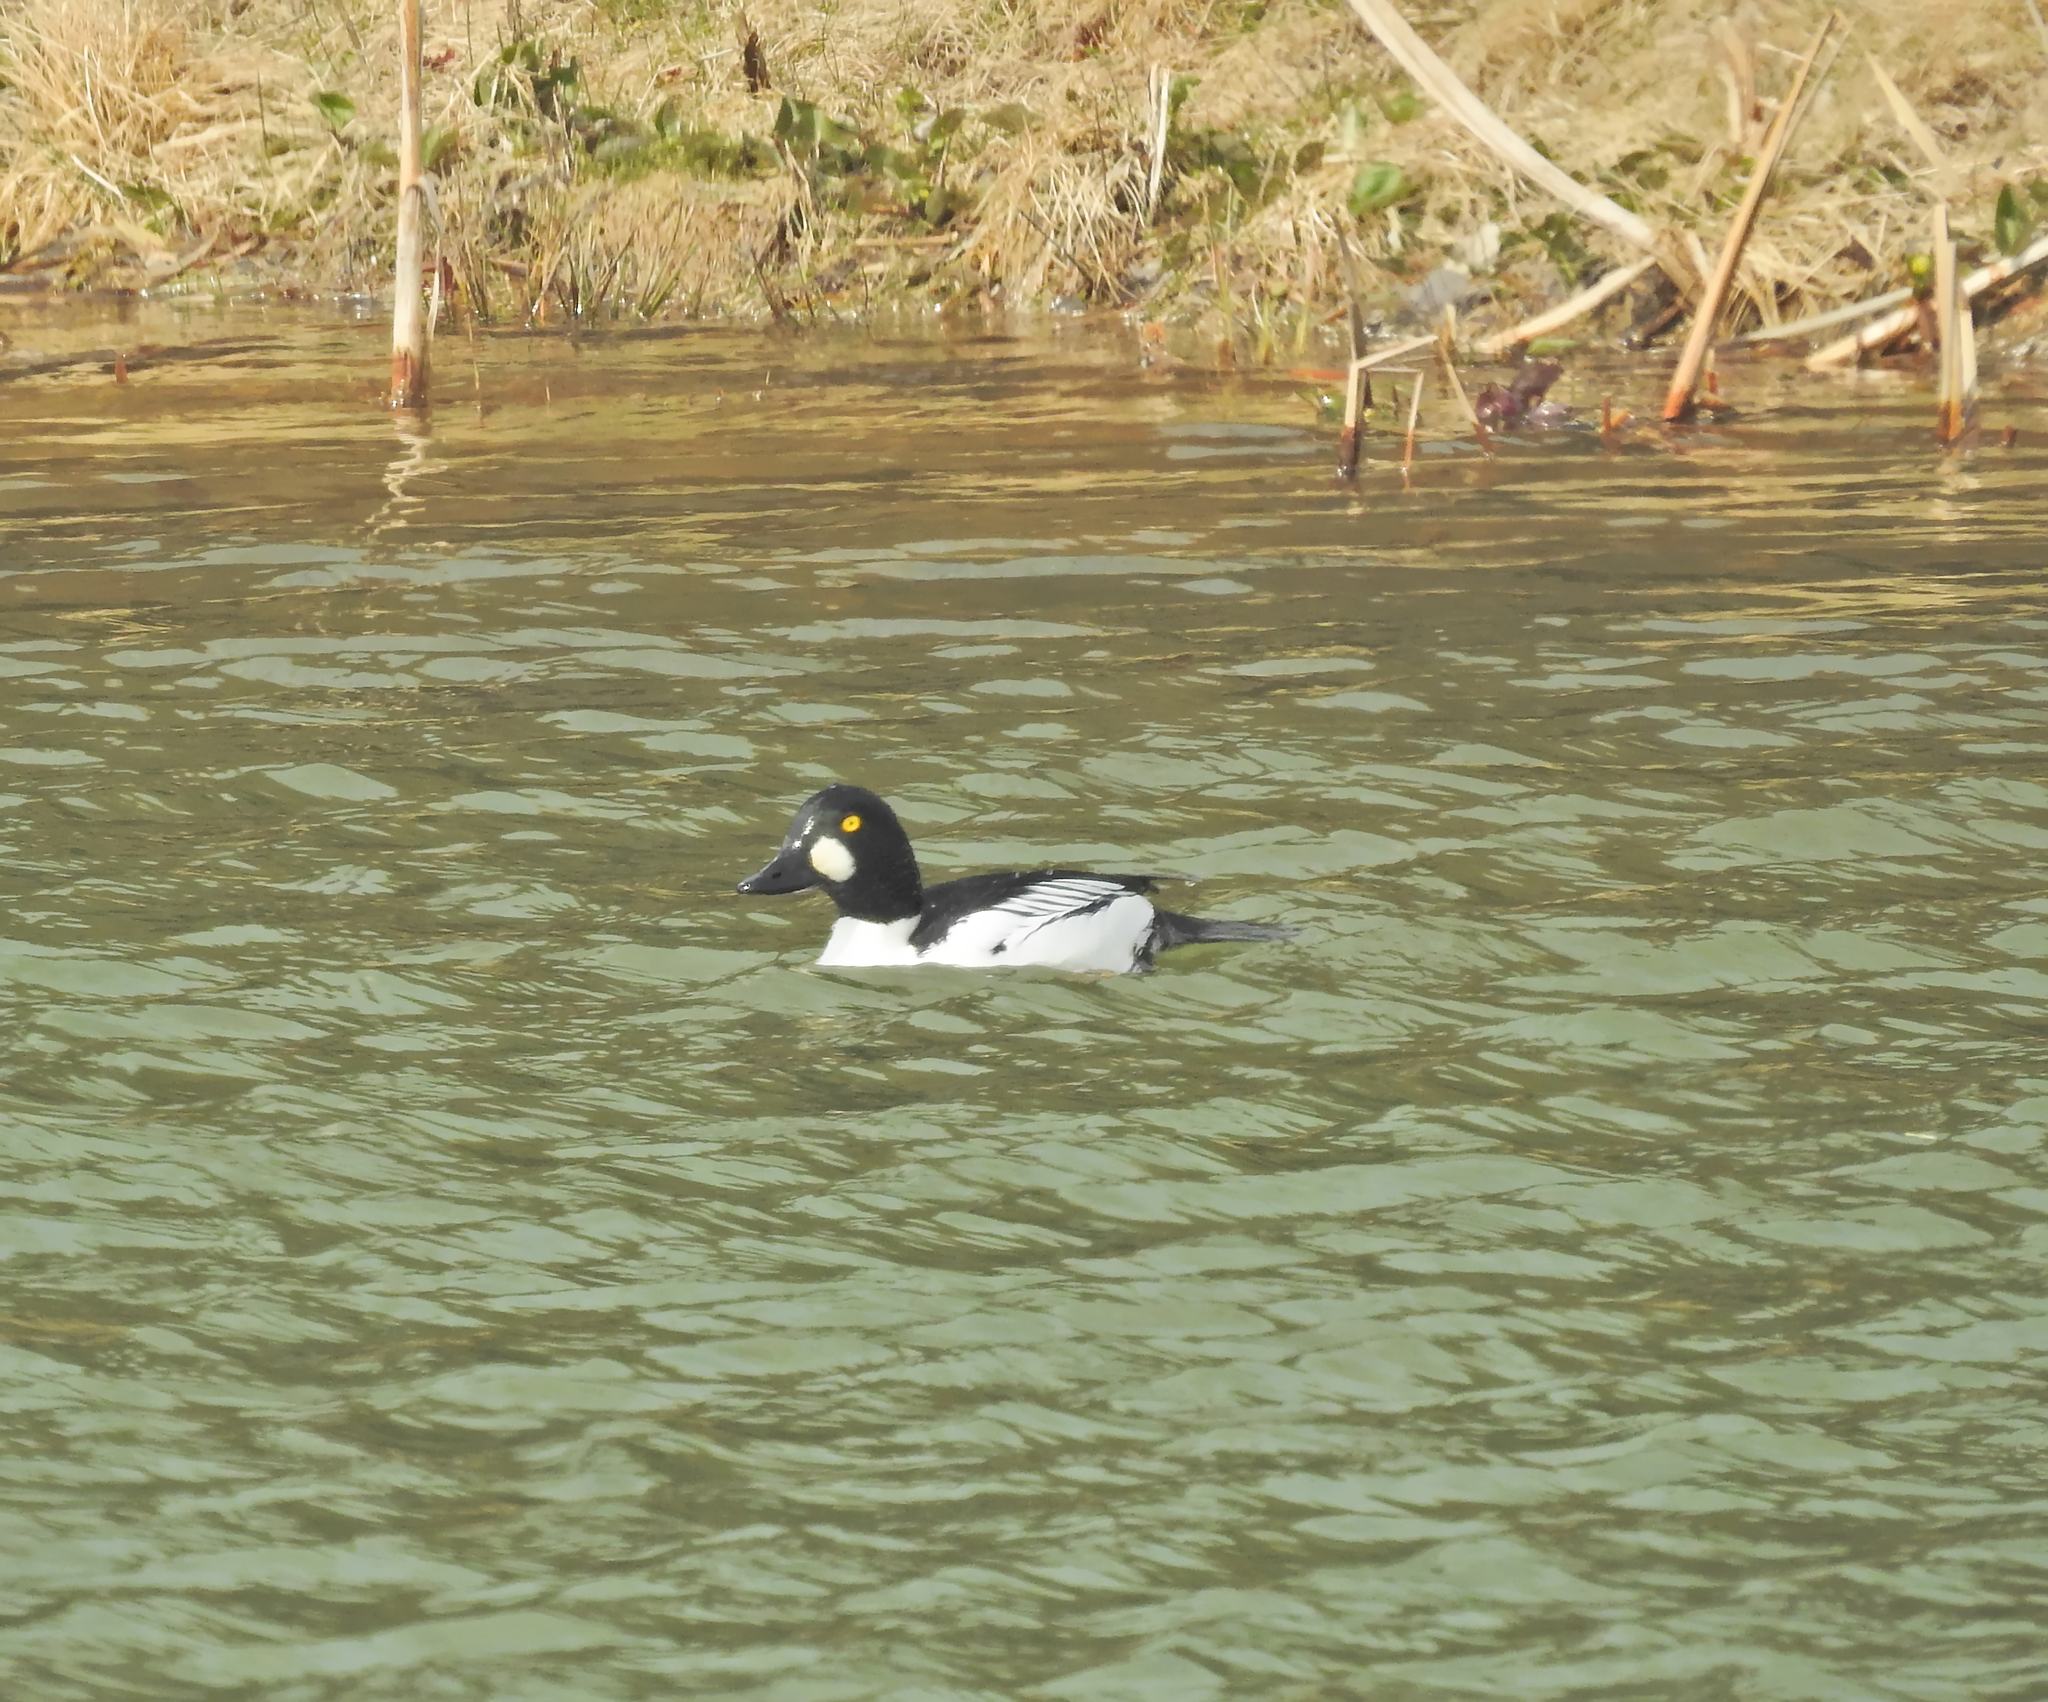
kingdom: Animalia
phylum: Chordata
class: Aves
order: Anseriformes
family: Anatidae
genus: Bucephala
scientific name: Bucephala clangula
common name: Common goldeneye
